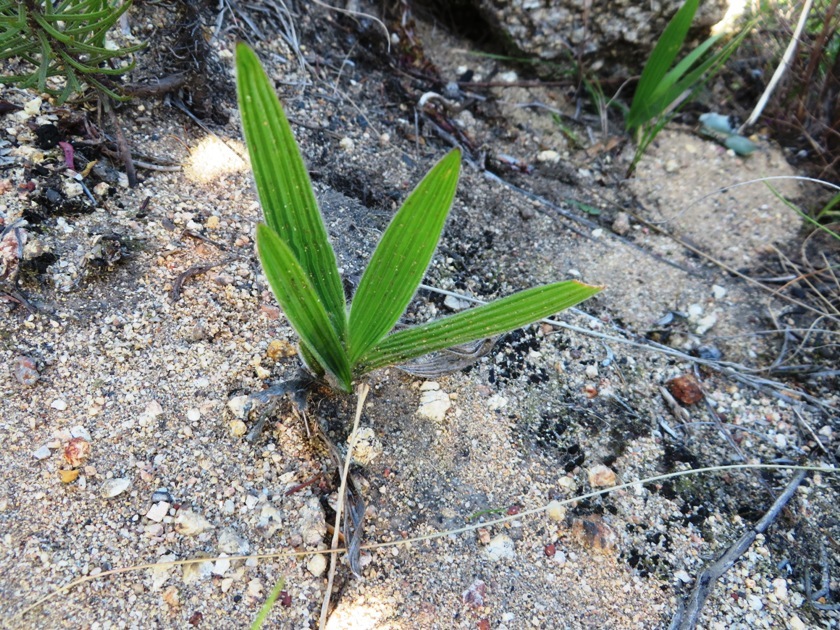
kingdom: Plantae
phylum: Tracheophyta
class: Liliopsida
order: Asparagales
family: Iridaceae
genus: Babiana
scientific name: Babiana ambigua
